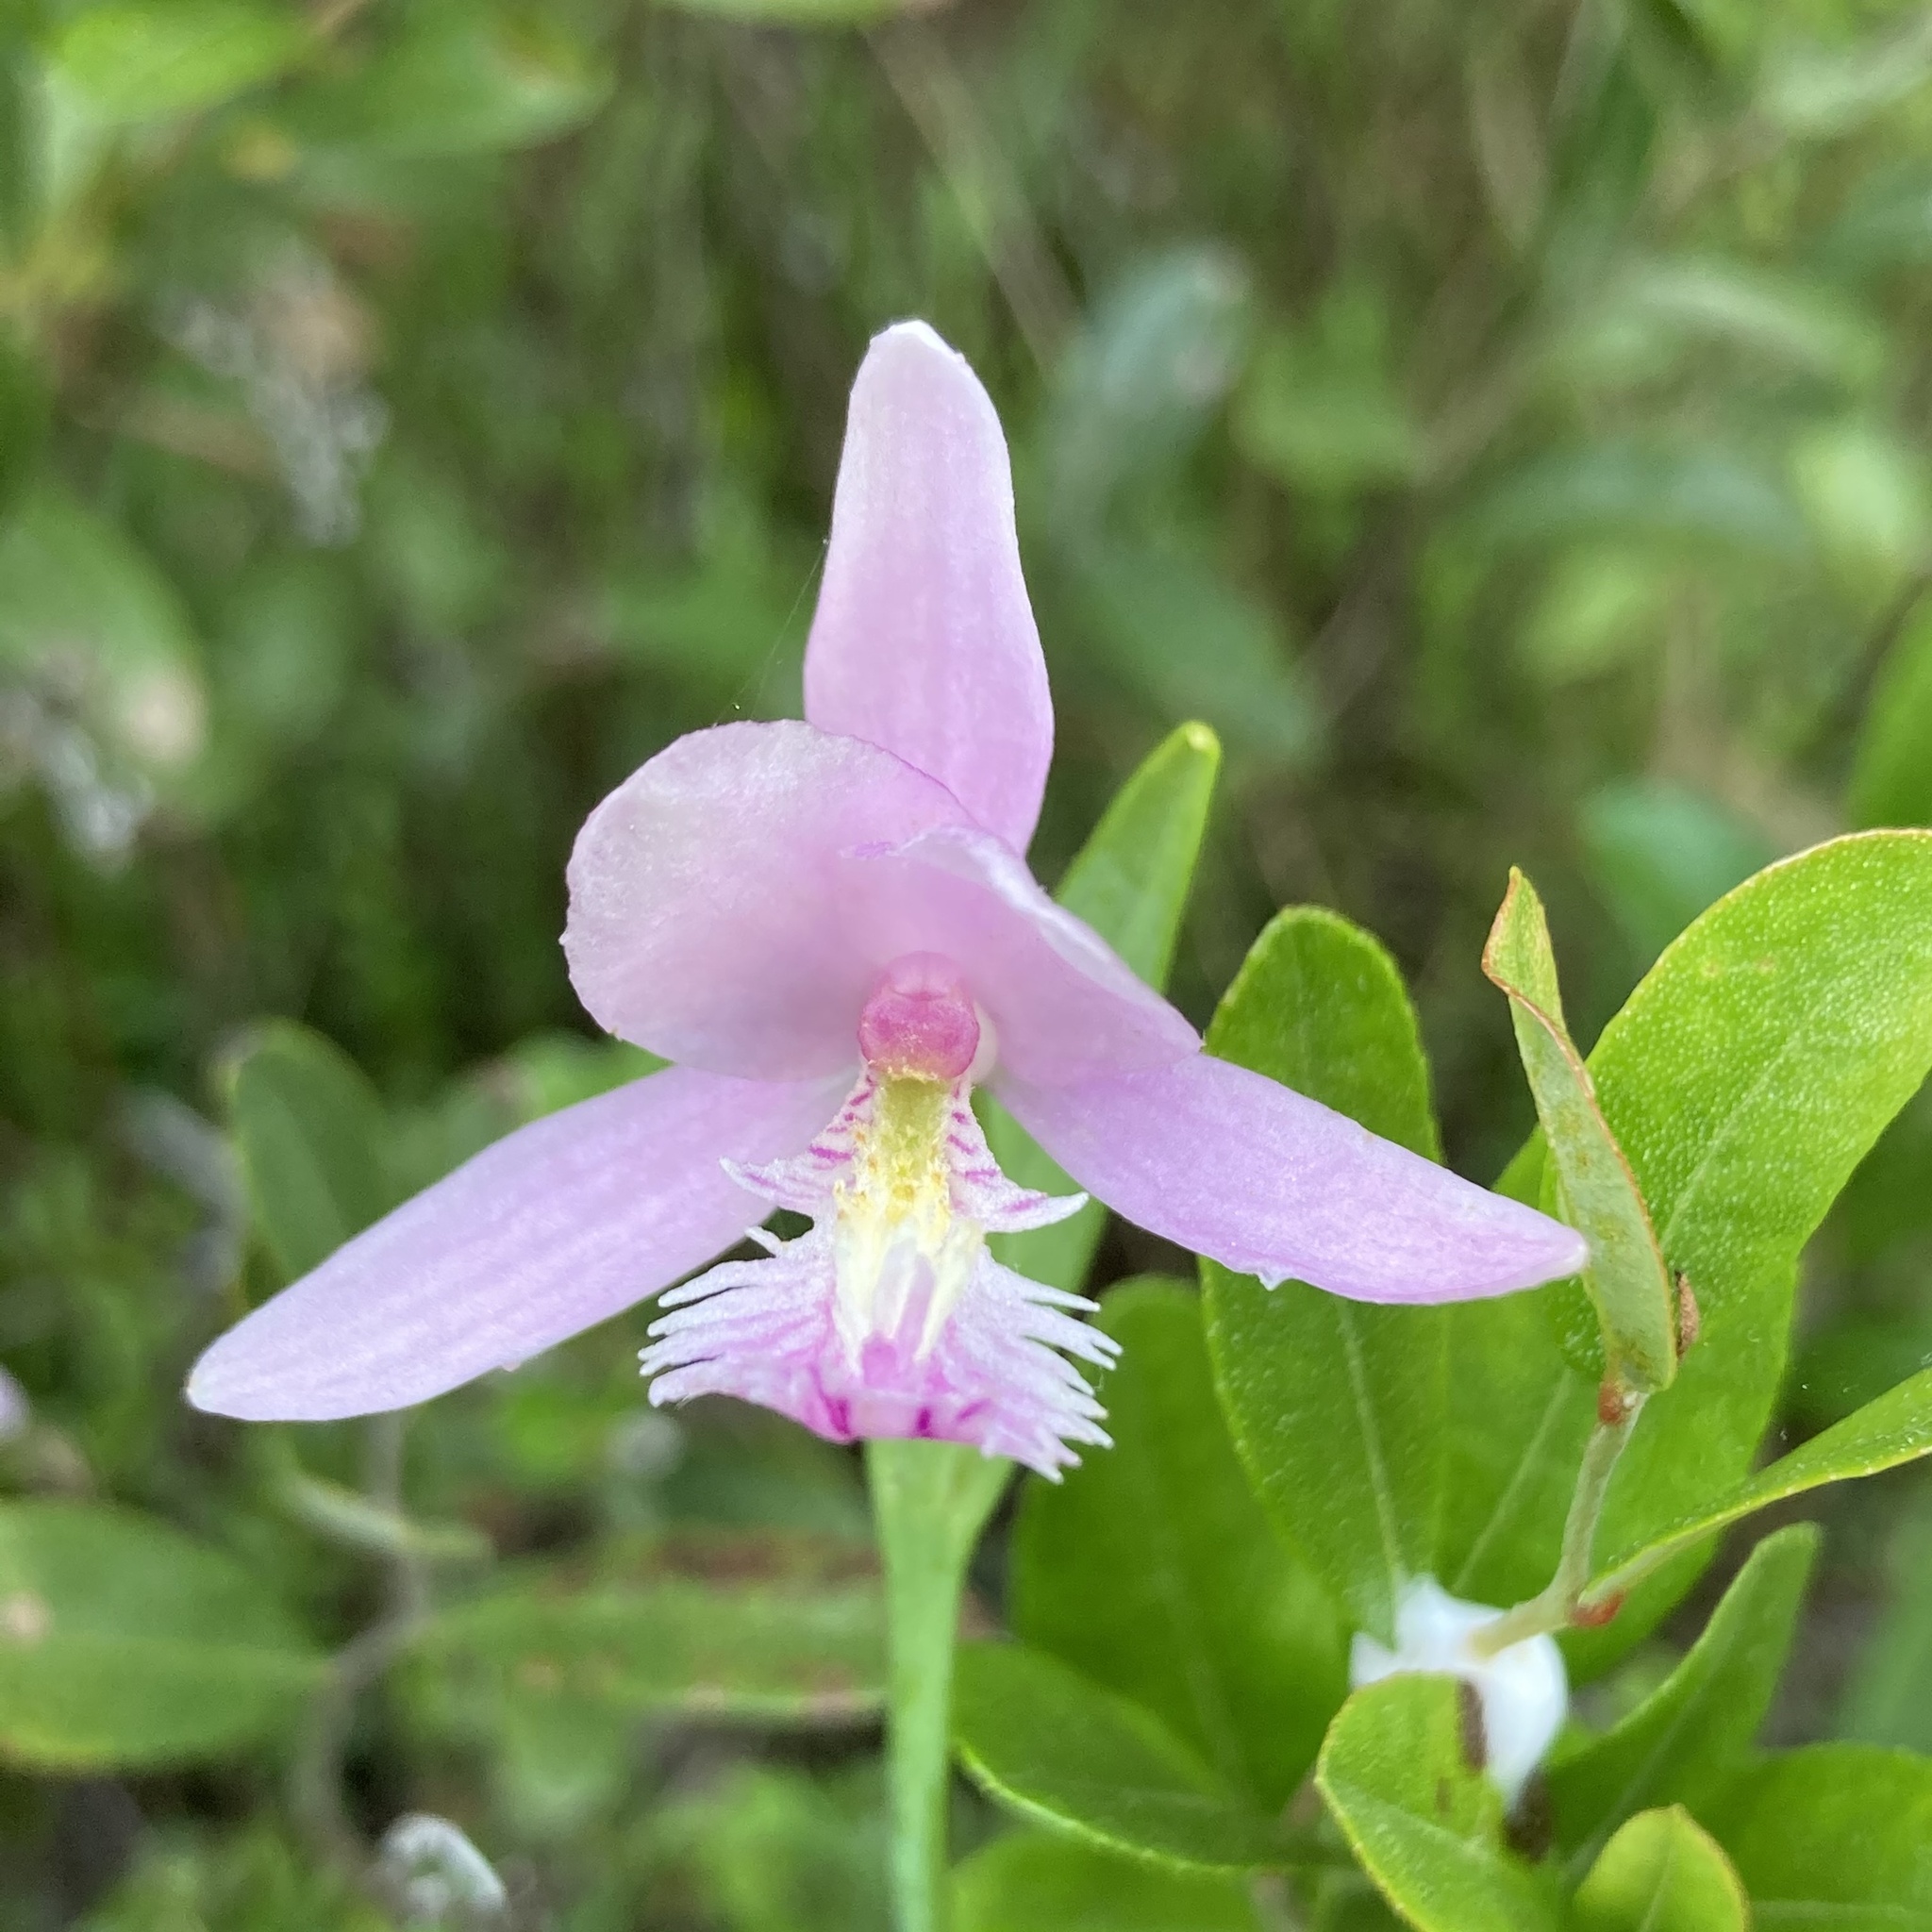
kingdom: Plantae
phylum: Tracheophyta
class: Liliopsida
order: Asparagales
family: Orchidaceae
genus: Pogonia
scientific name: Pogonia ophioglossoides
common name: Rose pogonia
